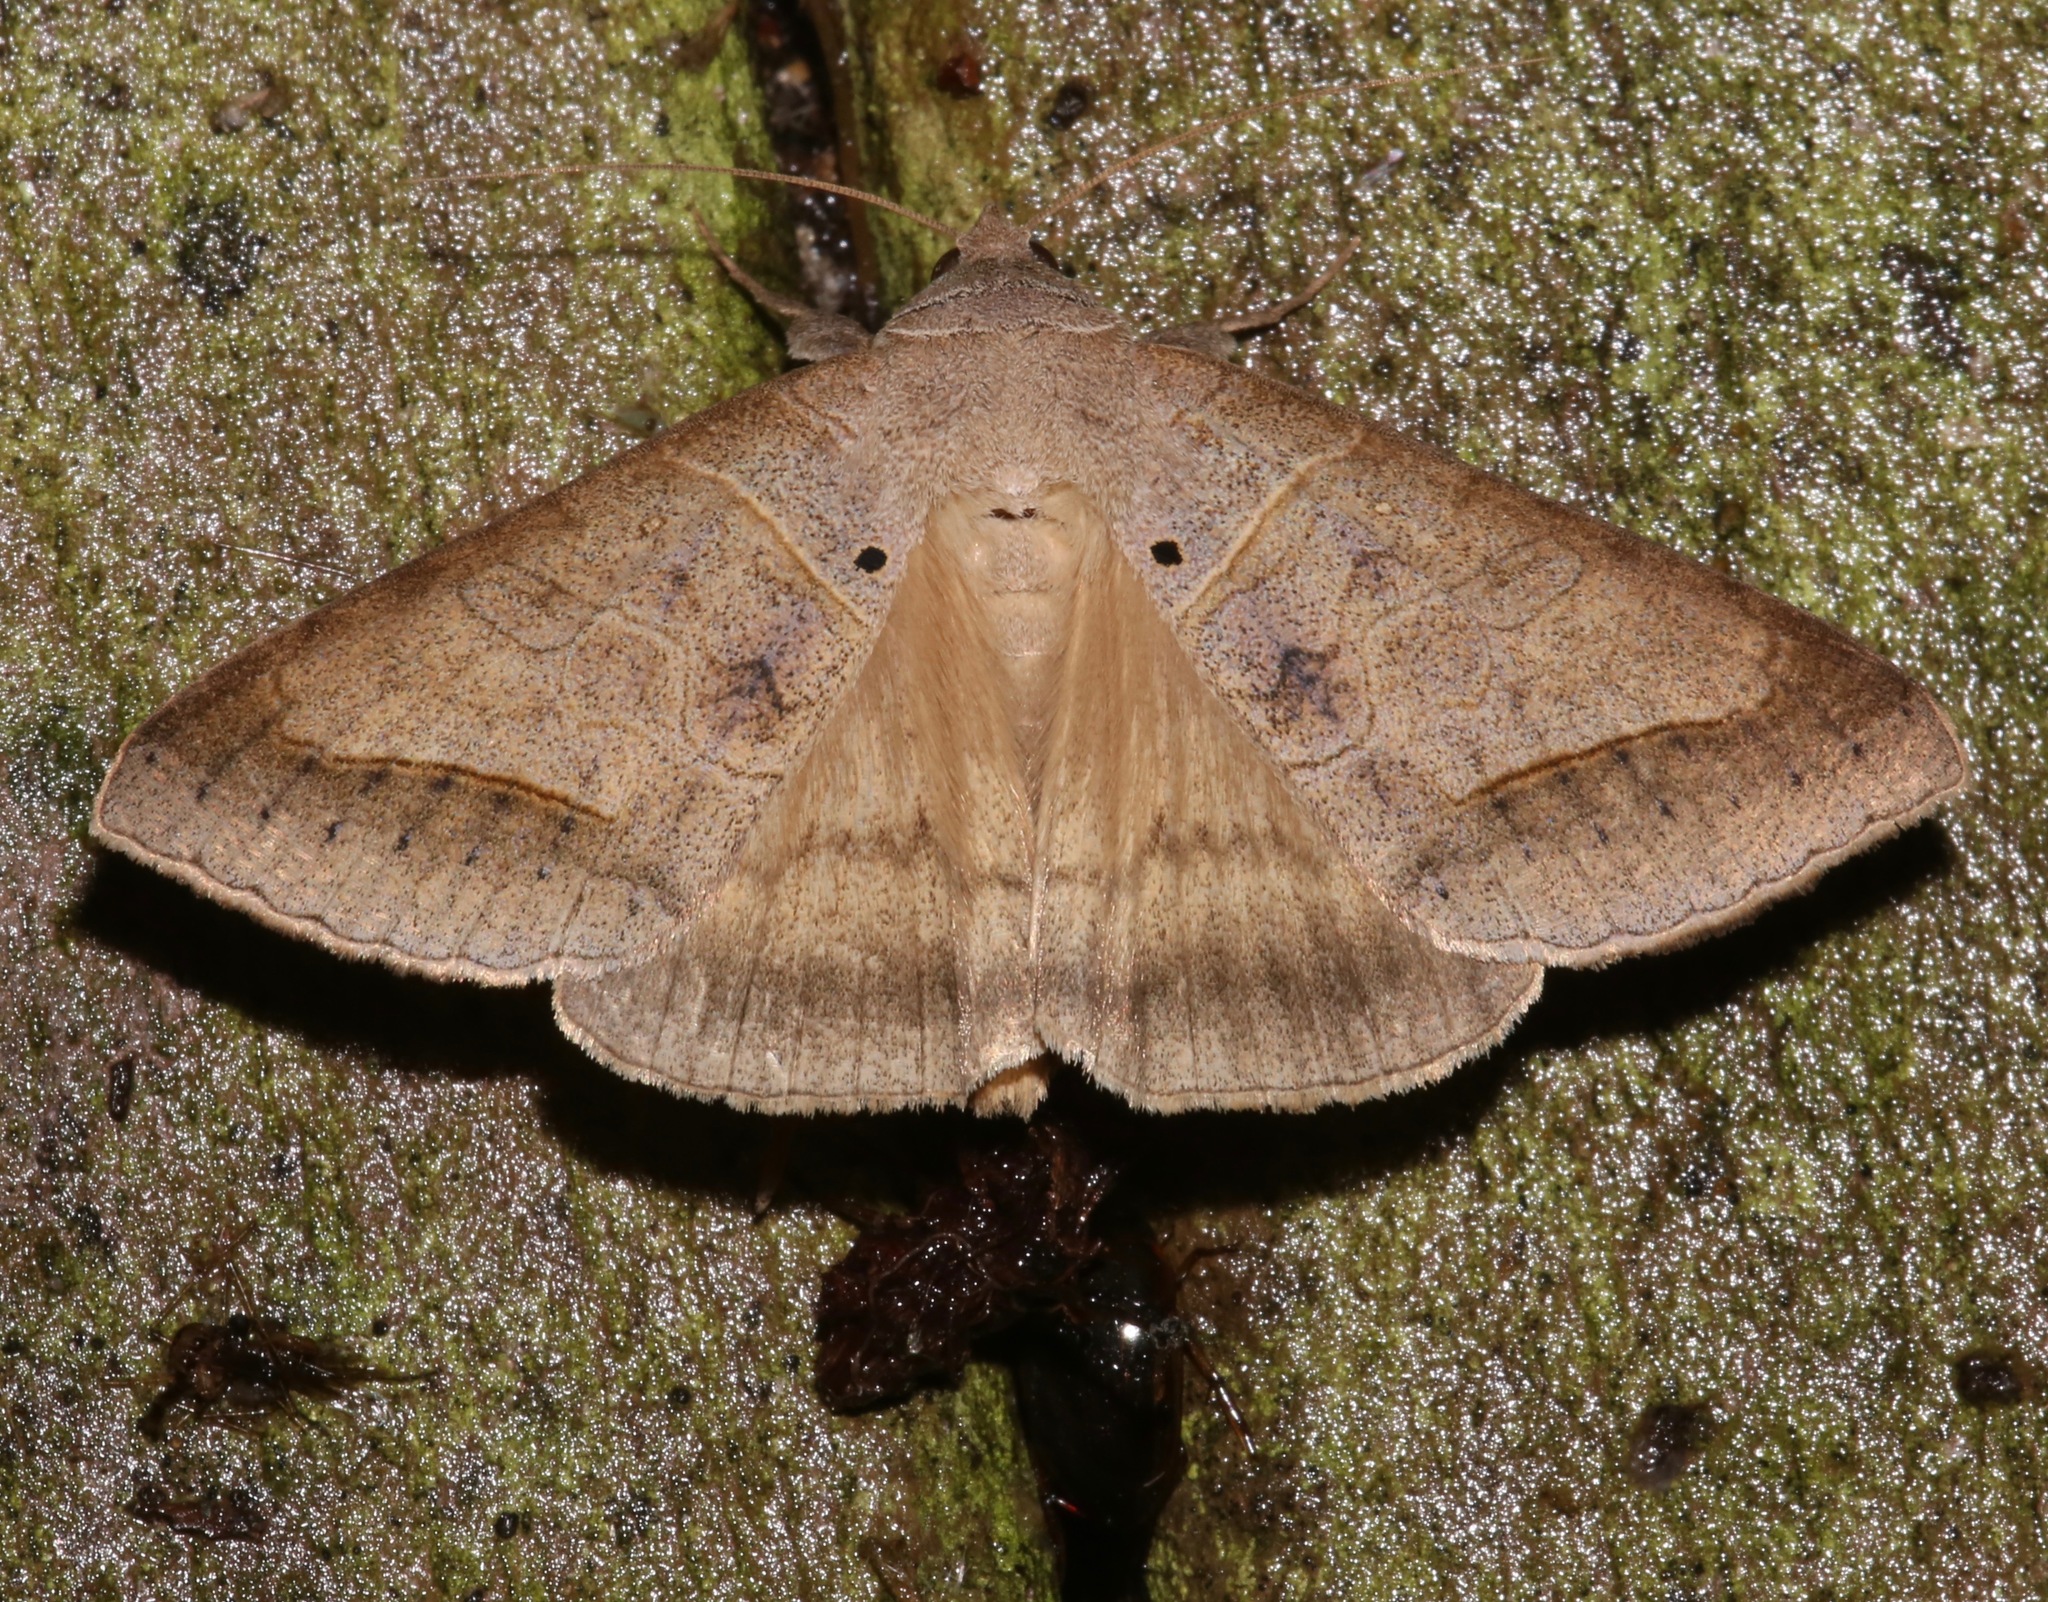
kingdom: Animalia
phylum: Arthropoda
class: Insecta
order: Lepidoptera
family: Erebidae
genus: Mocis
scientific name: Mocis marcida
